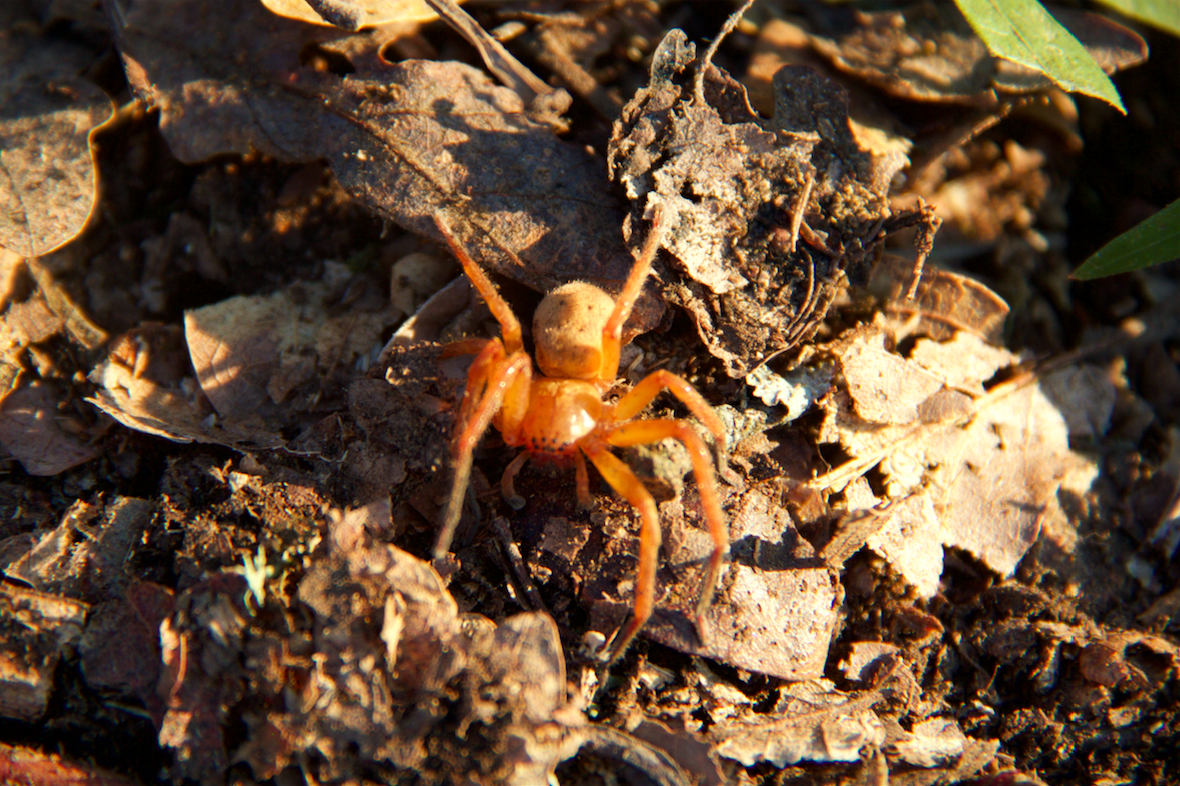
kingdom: Animalia
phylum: Arthropoda
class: Arachnida
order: Araneae
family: Sparassidae
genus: Olios
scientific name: Olios argelasius
